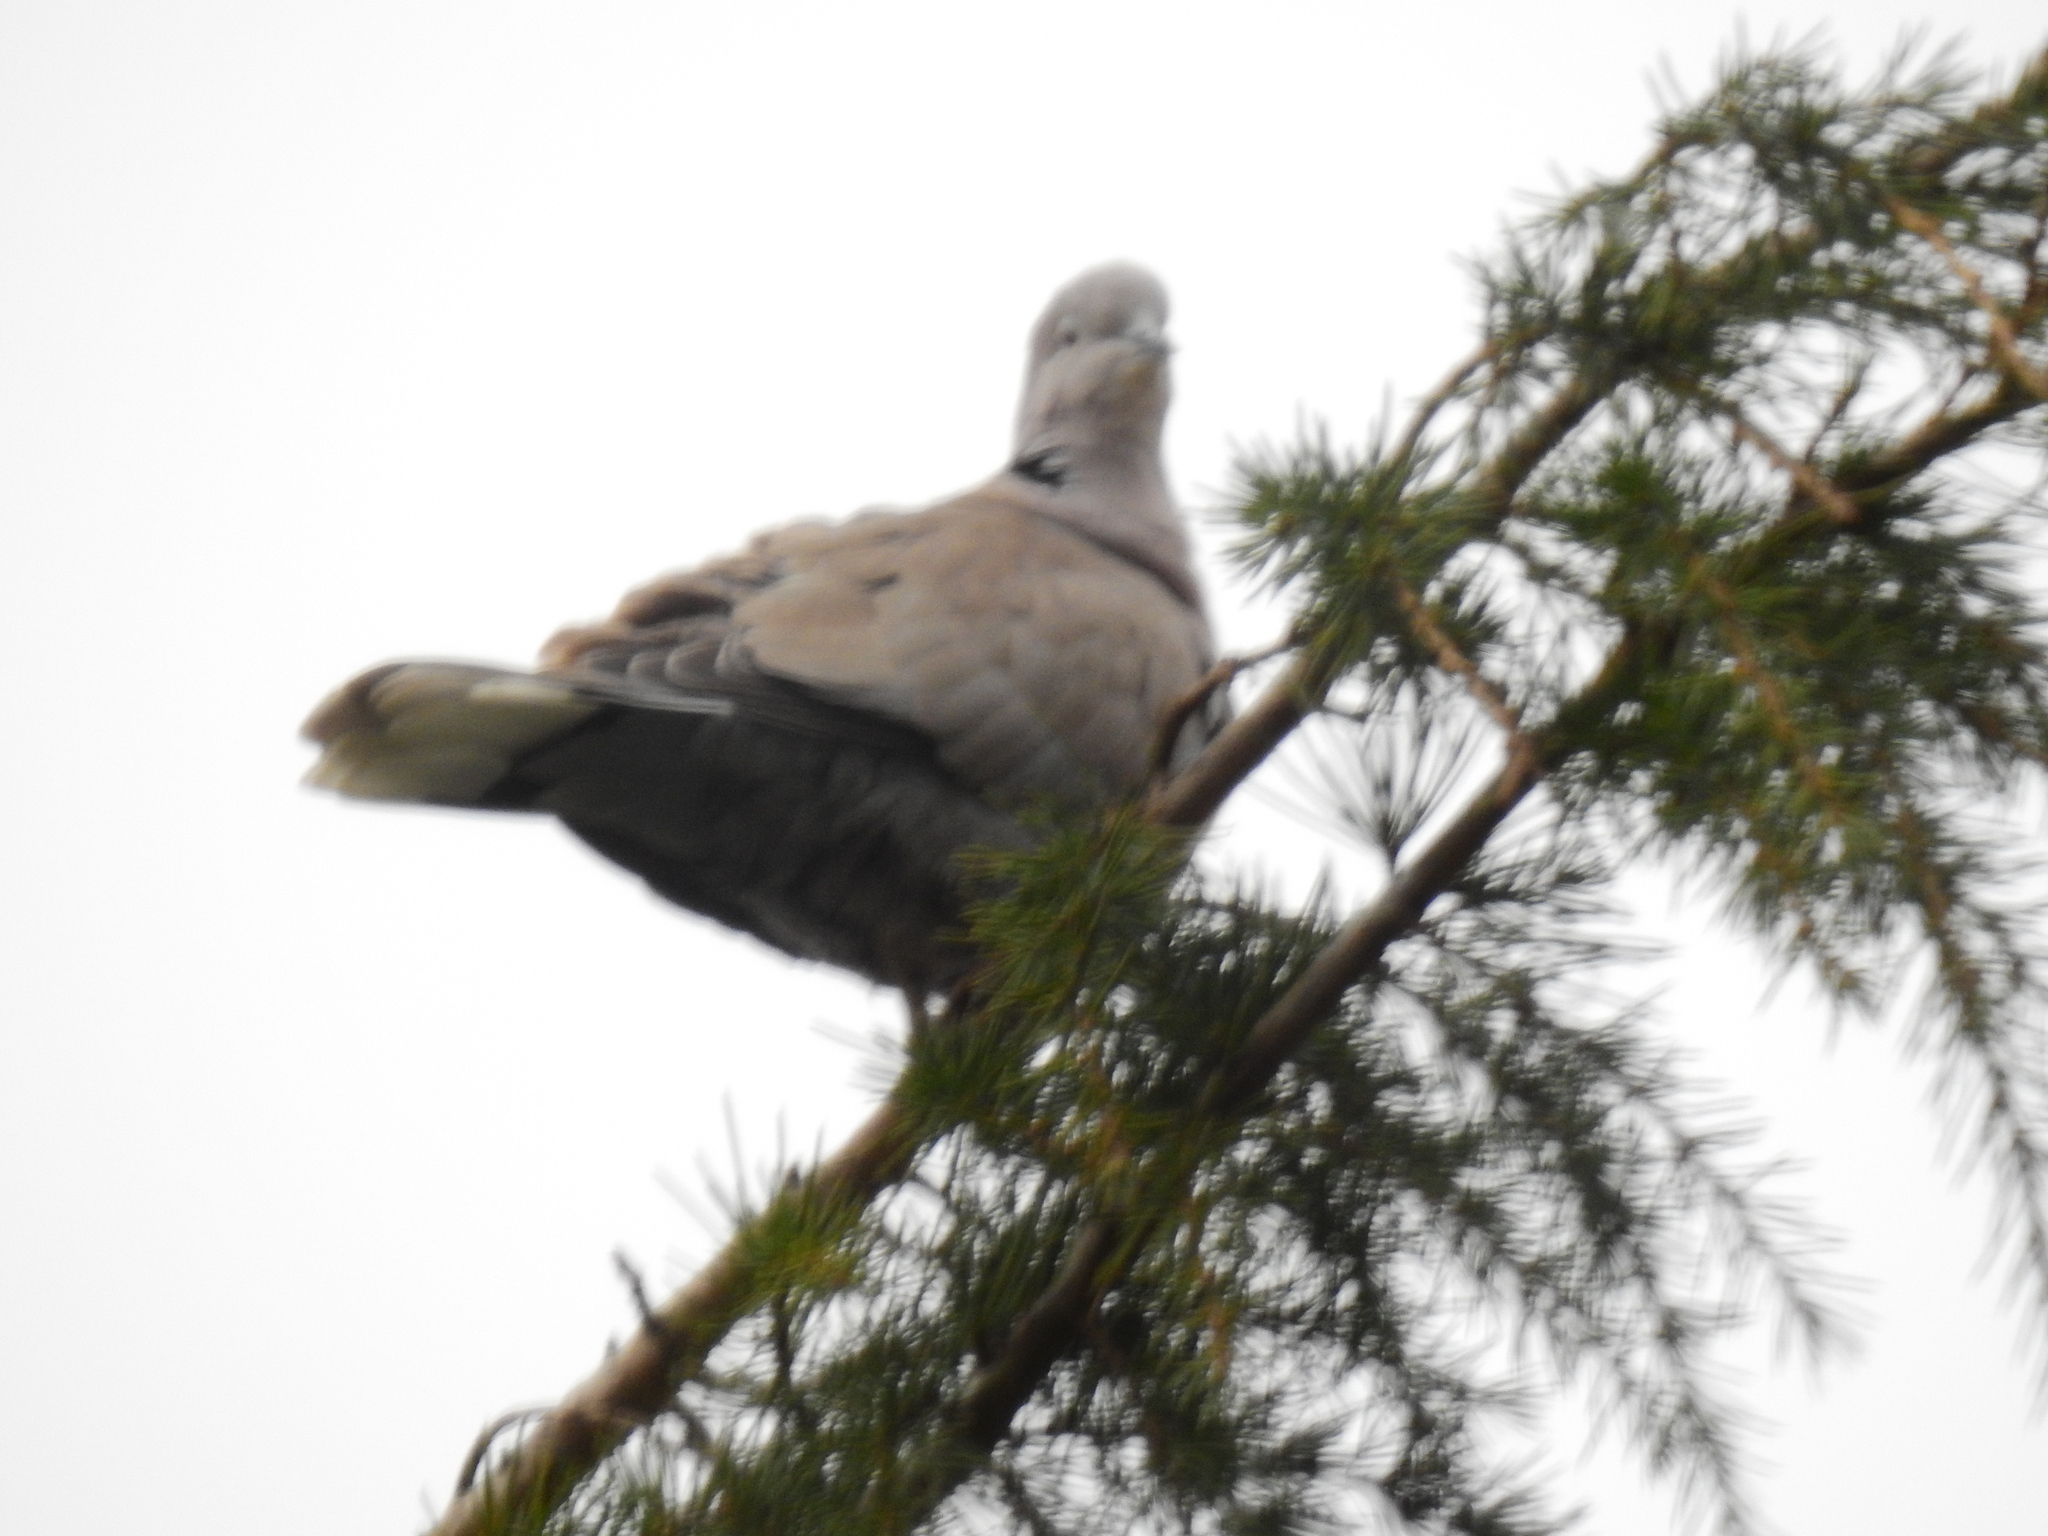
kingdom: Animalia
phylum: Chordata
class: Aves
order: Columbiformes
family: Columbidae
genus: Streptopelia
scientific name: Streptopelia decaocto
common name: Eurasian collared dove
